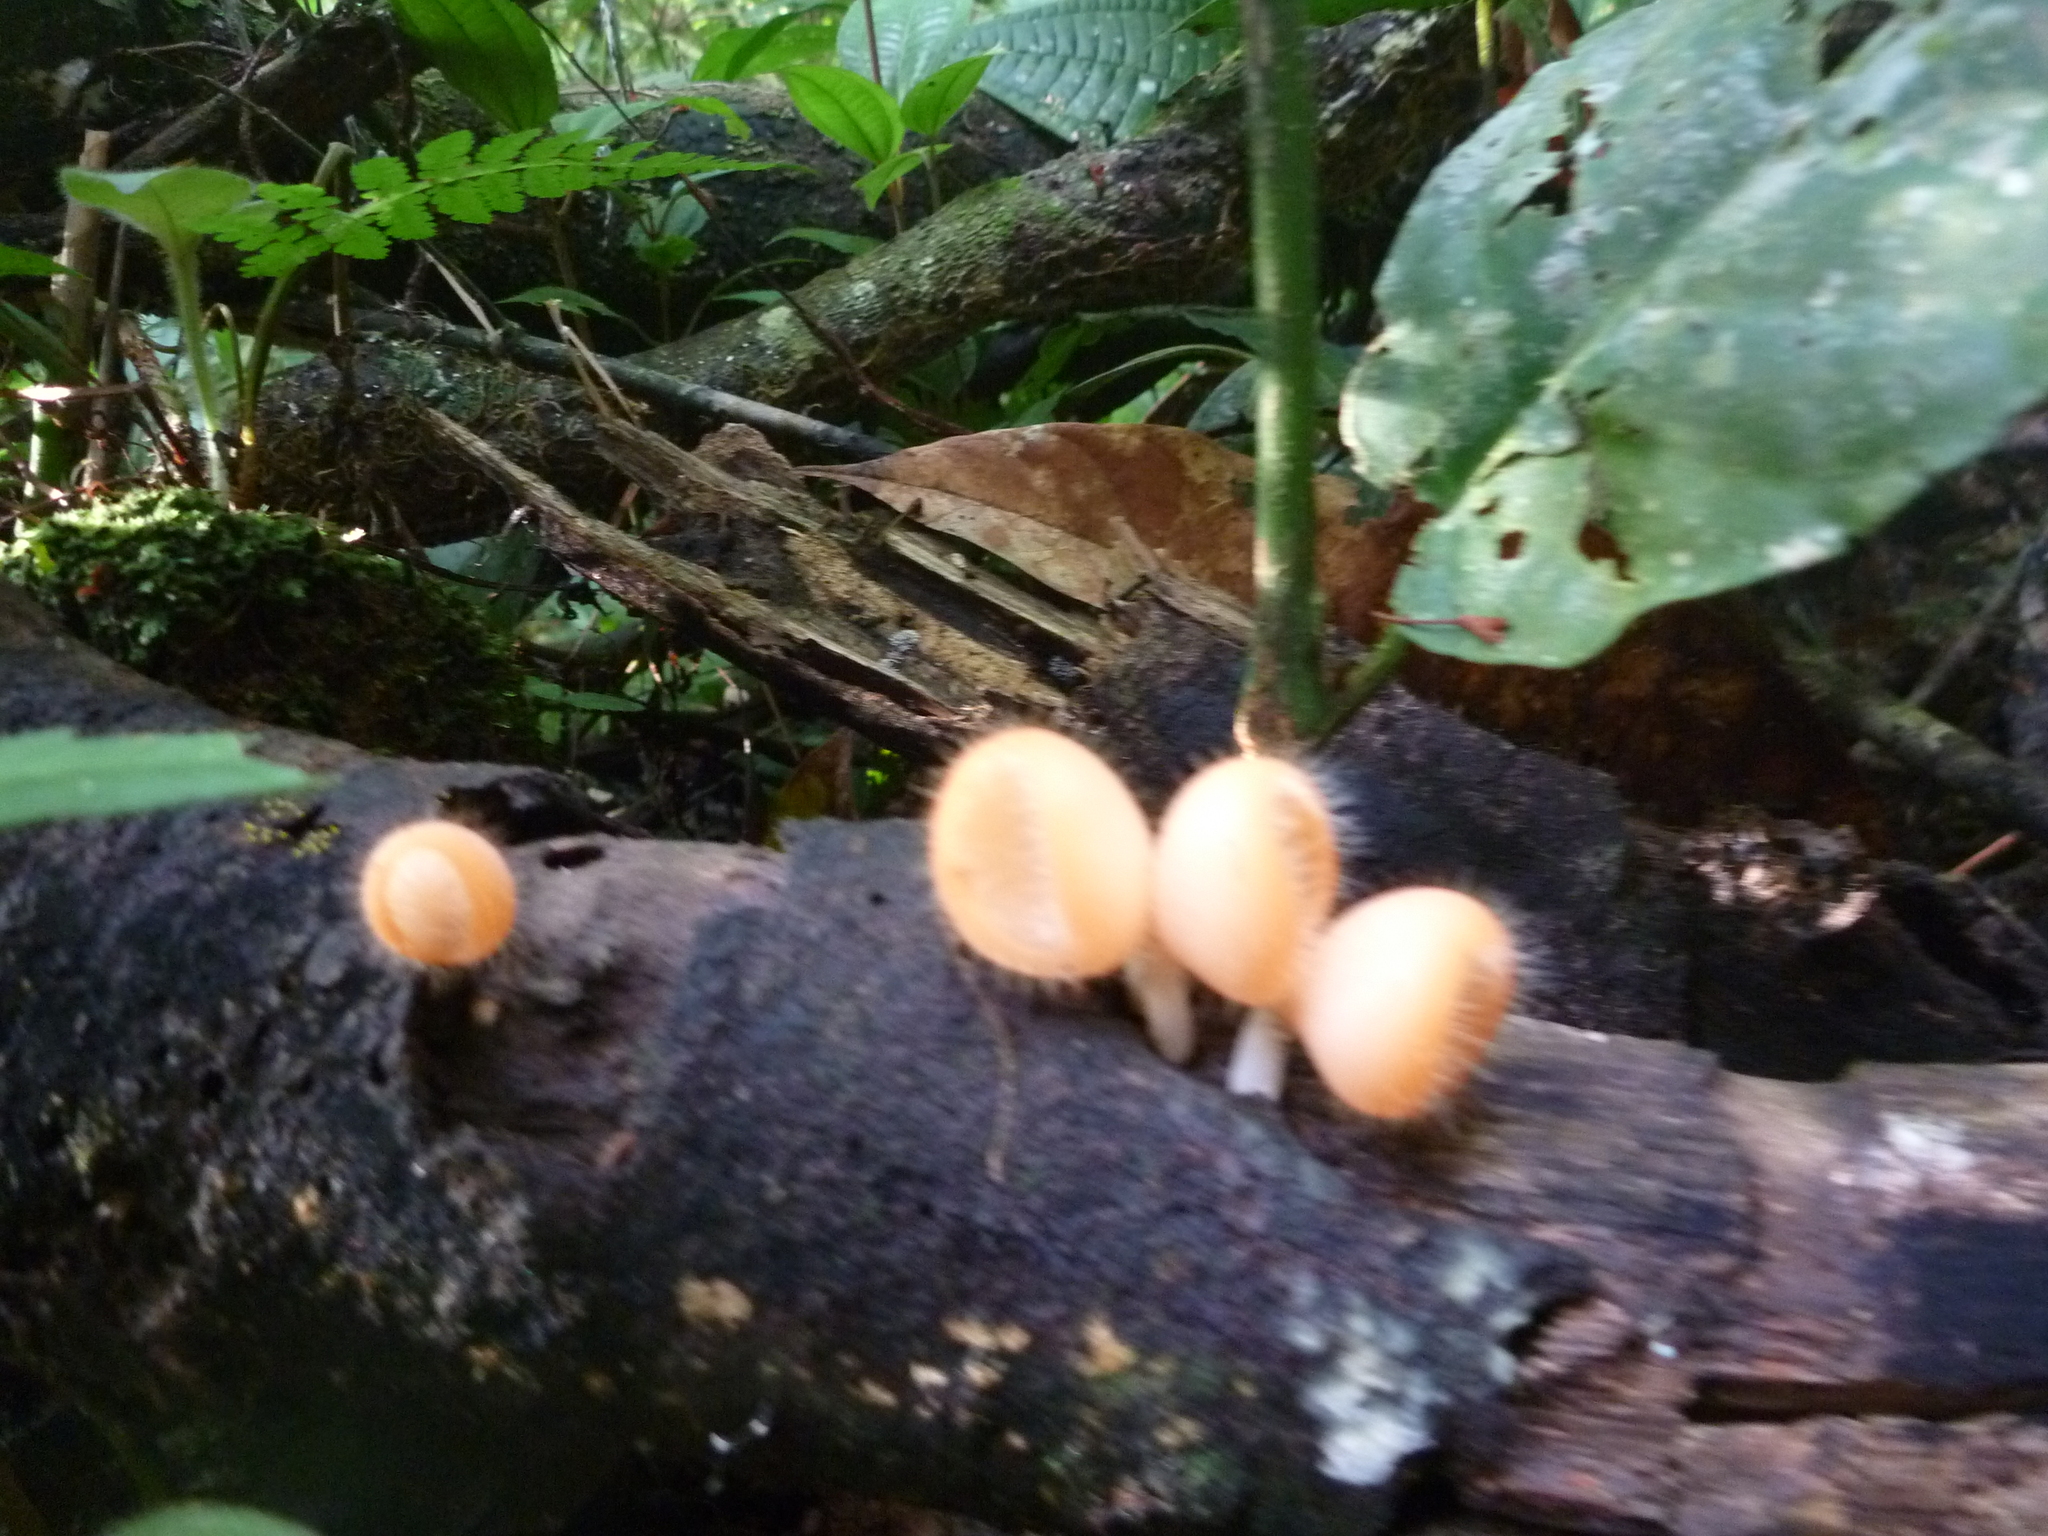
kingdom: Fungi
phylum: Ascomycota
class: Pezizomycetes
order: Pezizales
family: Sarcoscyphaceae
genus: Cookeina
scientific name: Cookeina tricholoma
